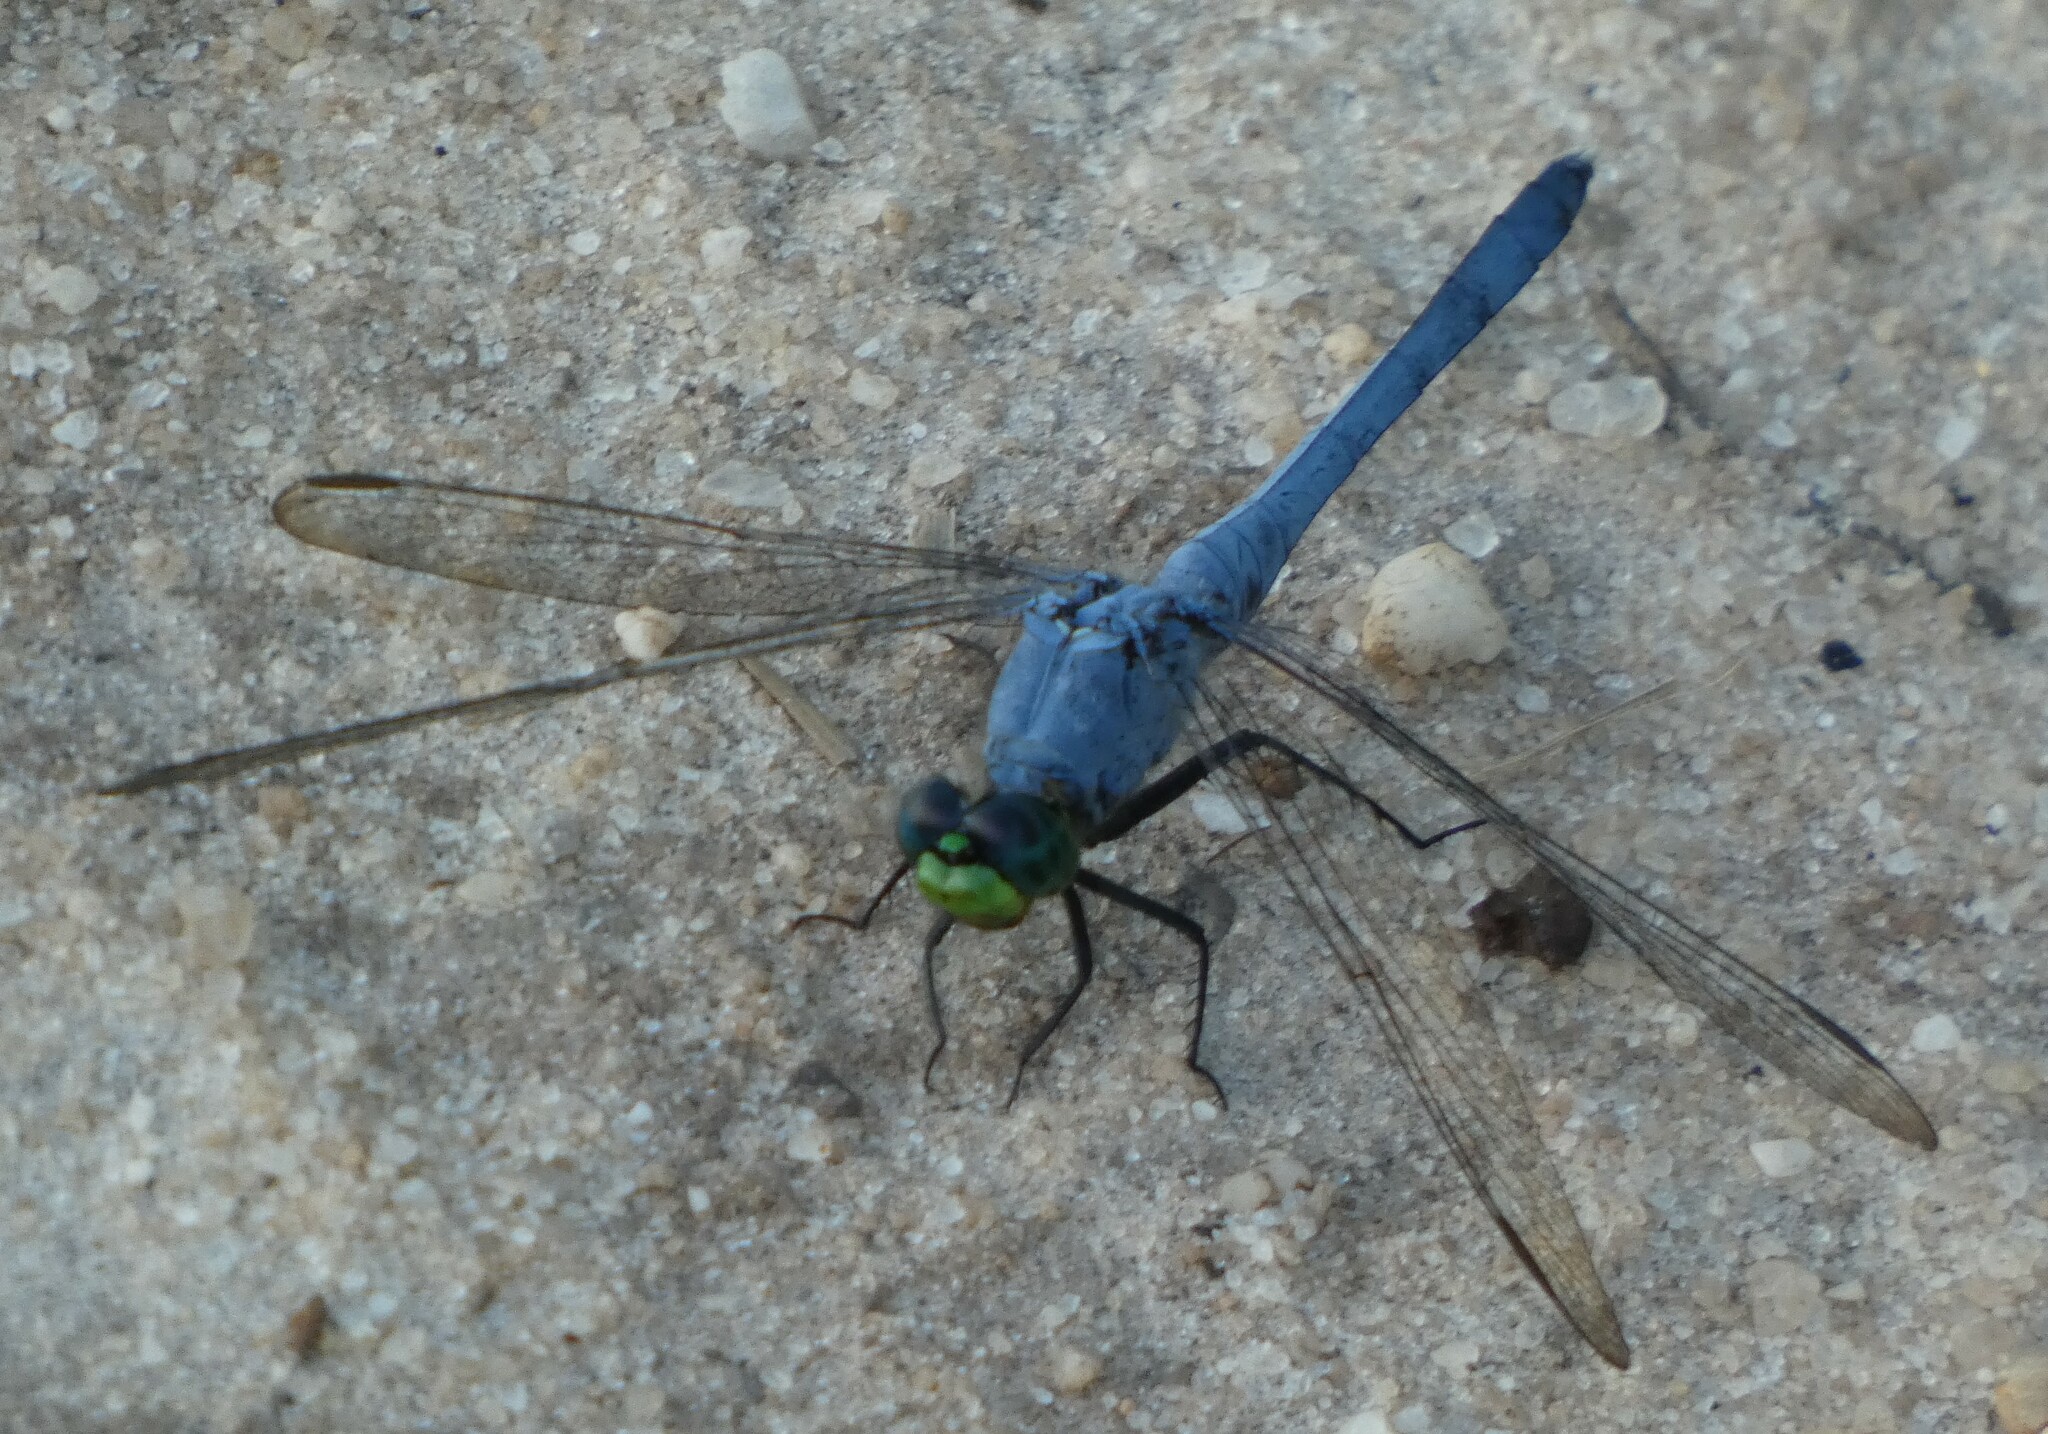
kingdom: Animalia
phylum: Arthropoda
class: Insecta
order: Odonata
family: Libellulidae
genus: Erythemis
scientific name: Erythemis simplicicollis
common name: Eastern pondhawk
